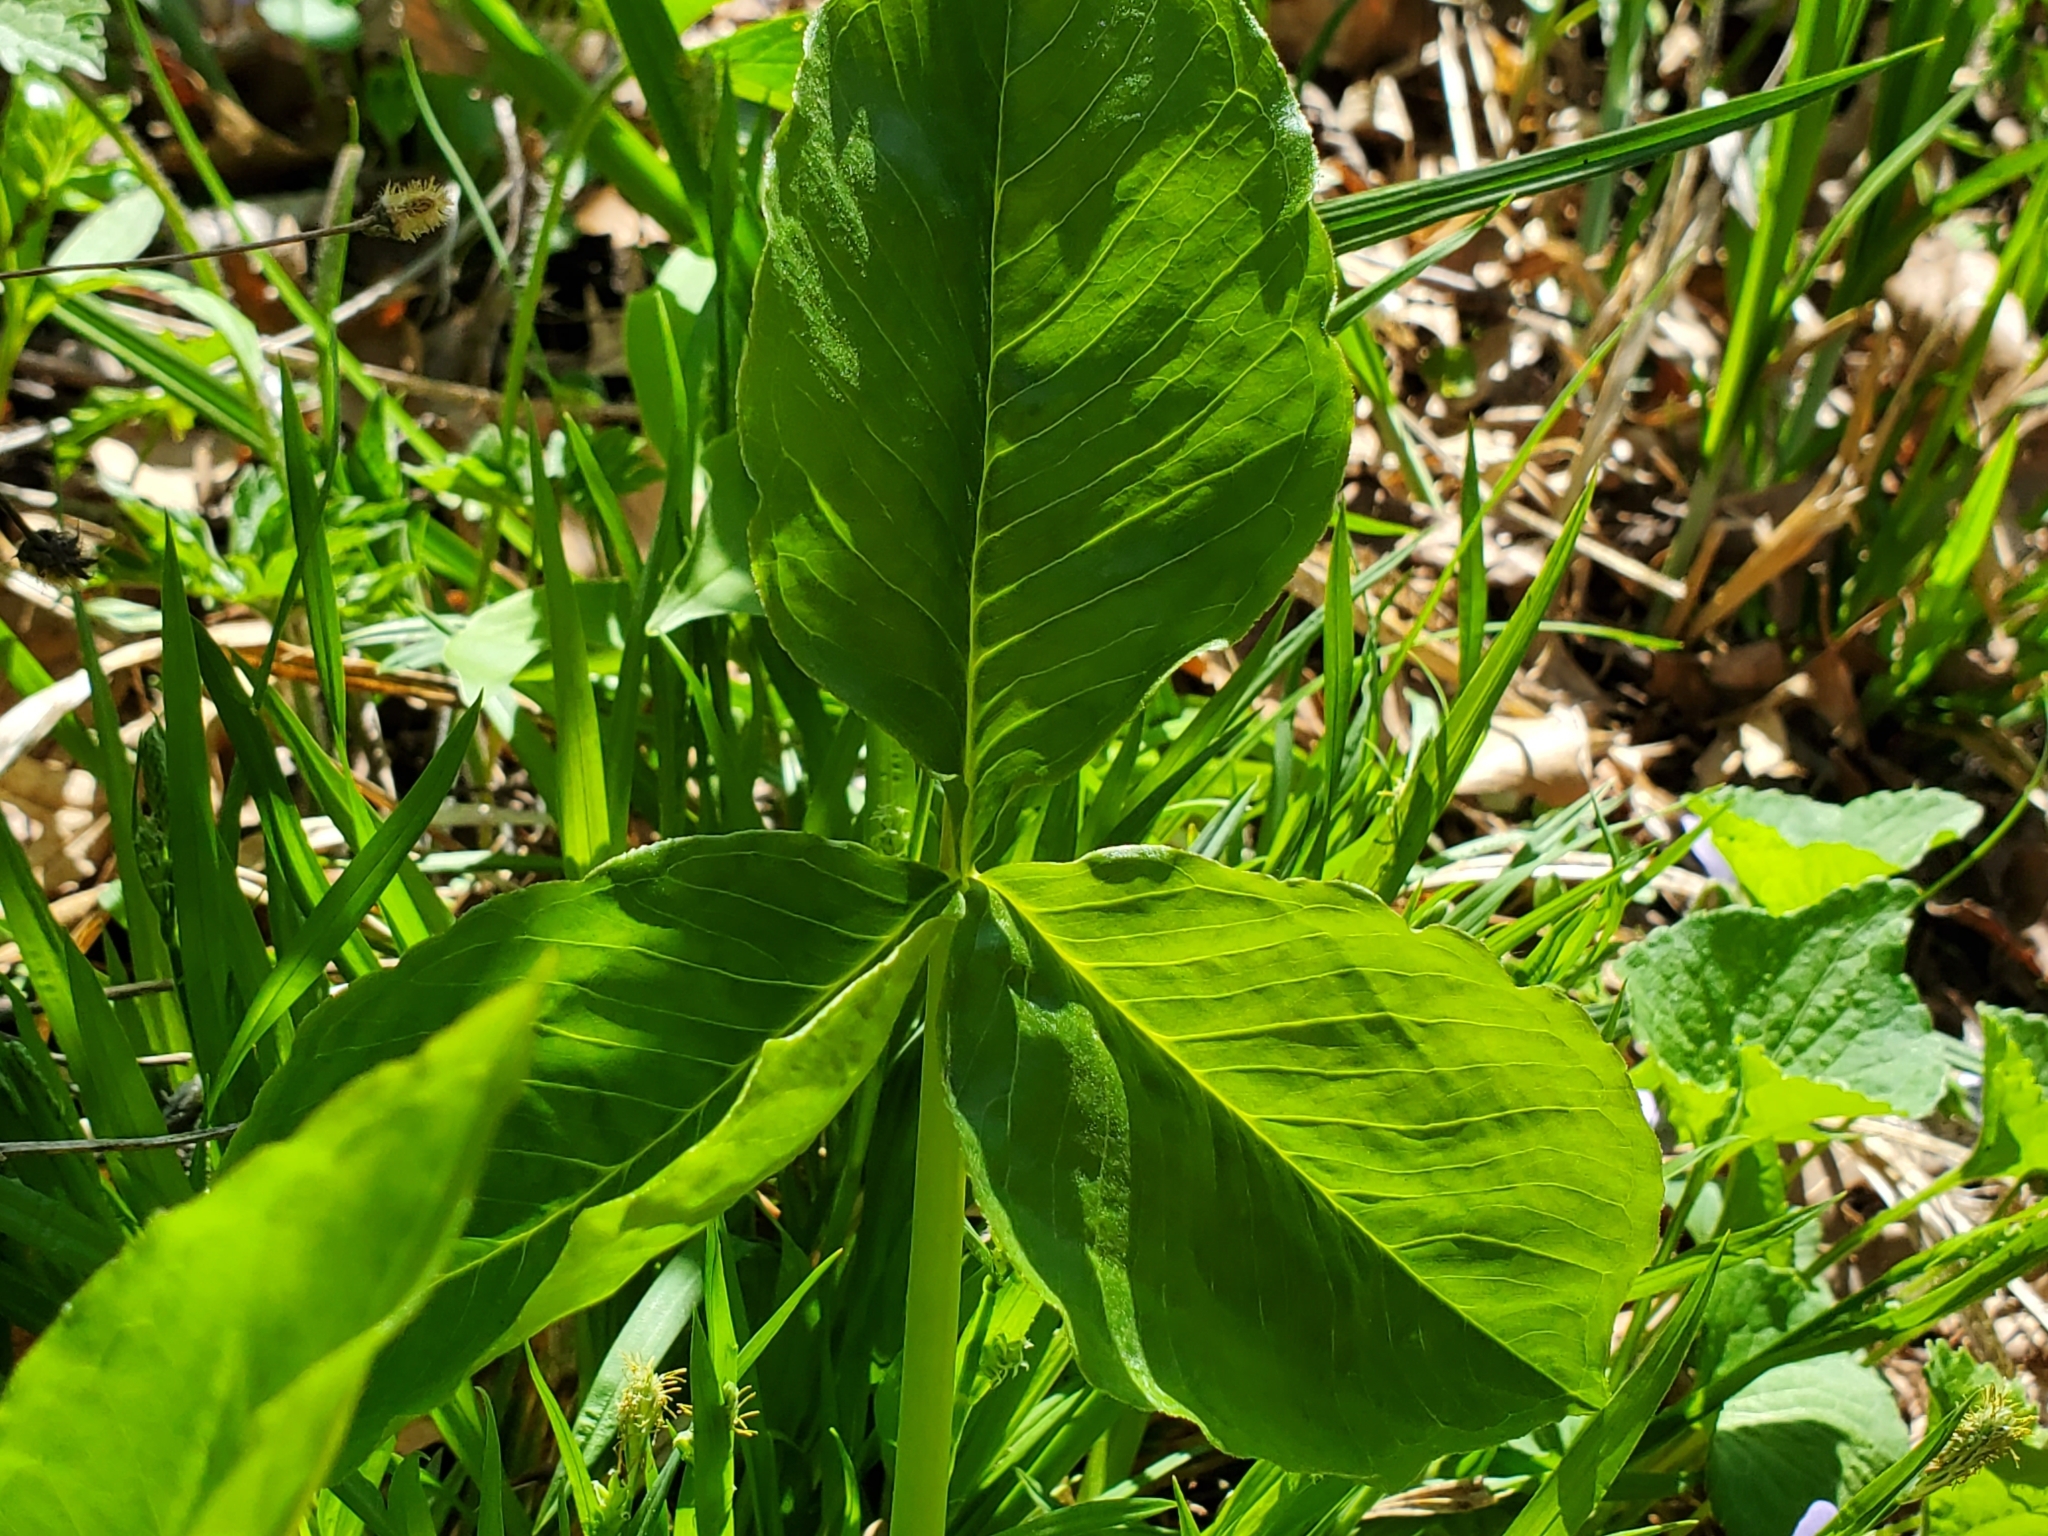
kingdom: Plantae
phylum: Tracheophyta
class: Liliopsida
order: Alismatales
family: Araceae
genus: Arisaema
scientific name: Arisaema triphyllum
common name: Jack-in-the-pulpit
